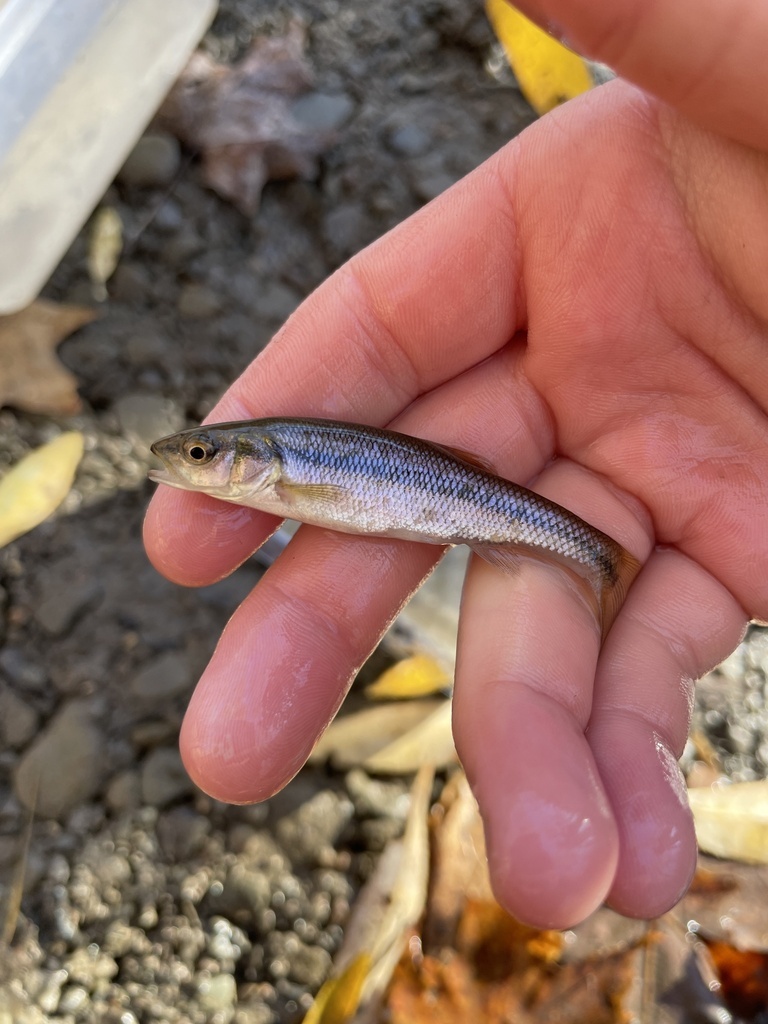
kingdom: Animalia
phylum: Chordata
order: Cypriniformes
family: Cyprinidae
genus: Semotilus
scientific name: Semotilus atromaculatus
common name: Creek chub
